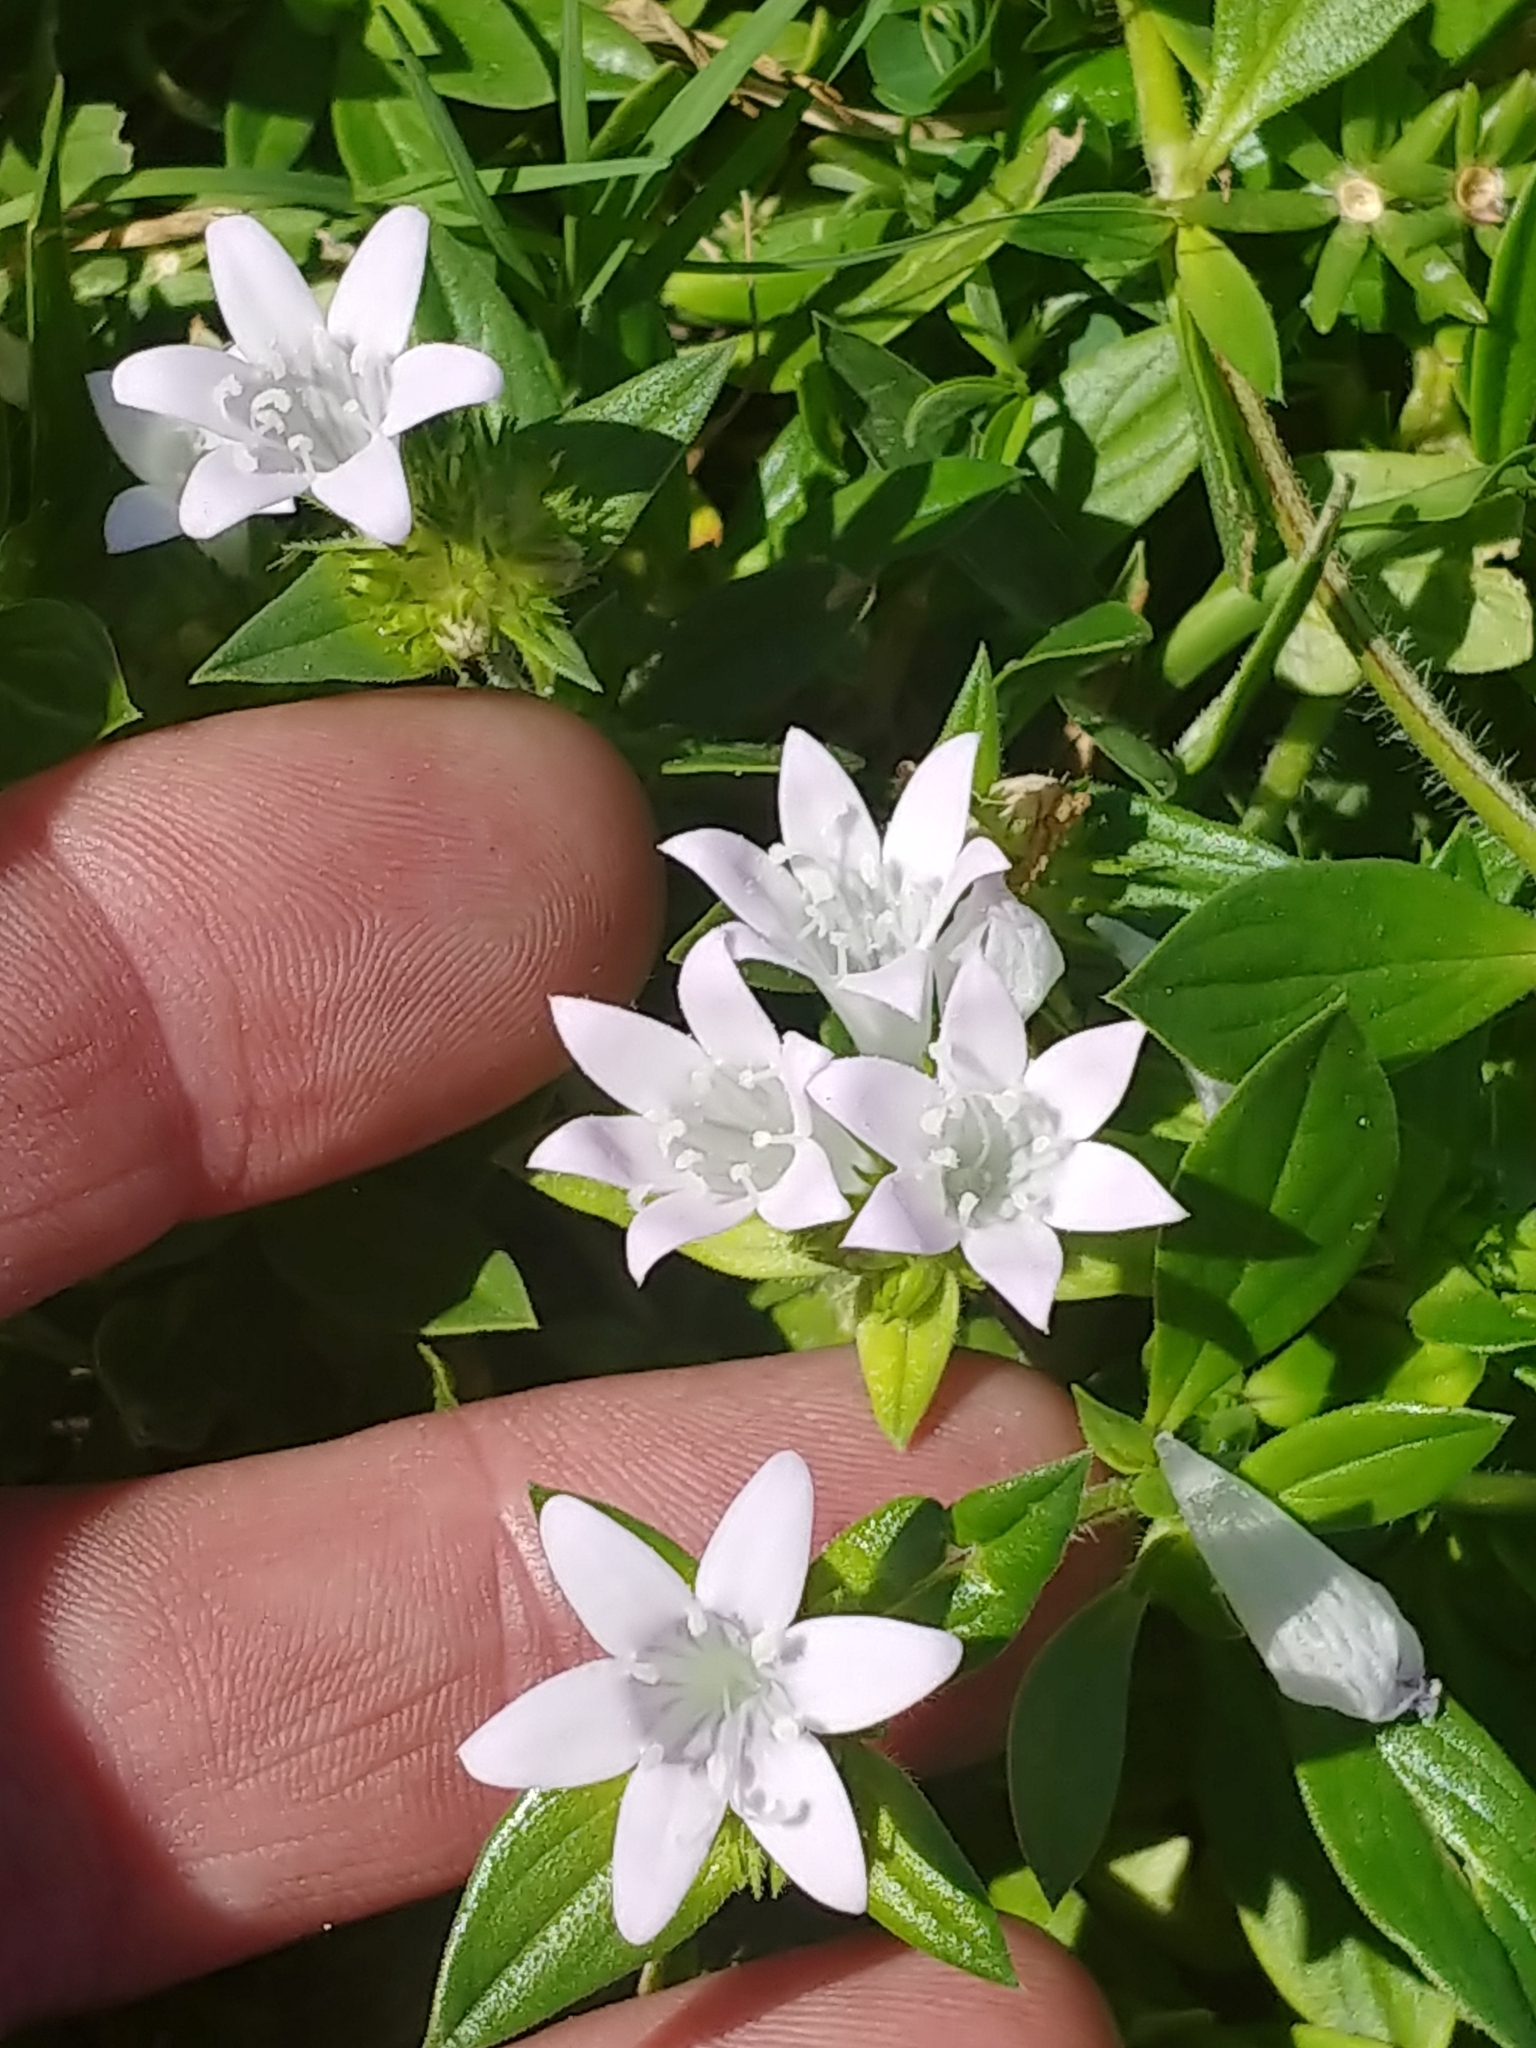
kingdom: Plantae
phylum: Tracheophyta
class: Magnoliopsida
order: Gentianales
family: Rubiaceae
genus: Richardia
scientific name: Richardia grandiflora
